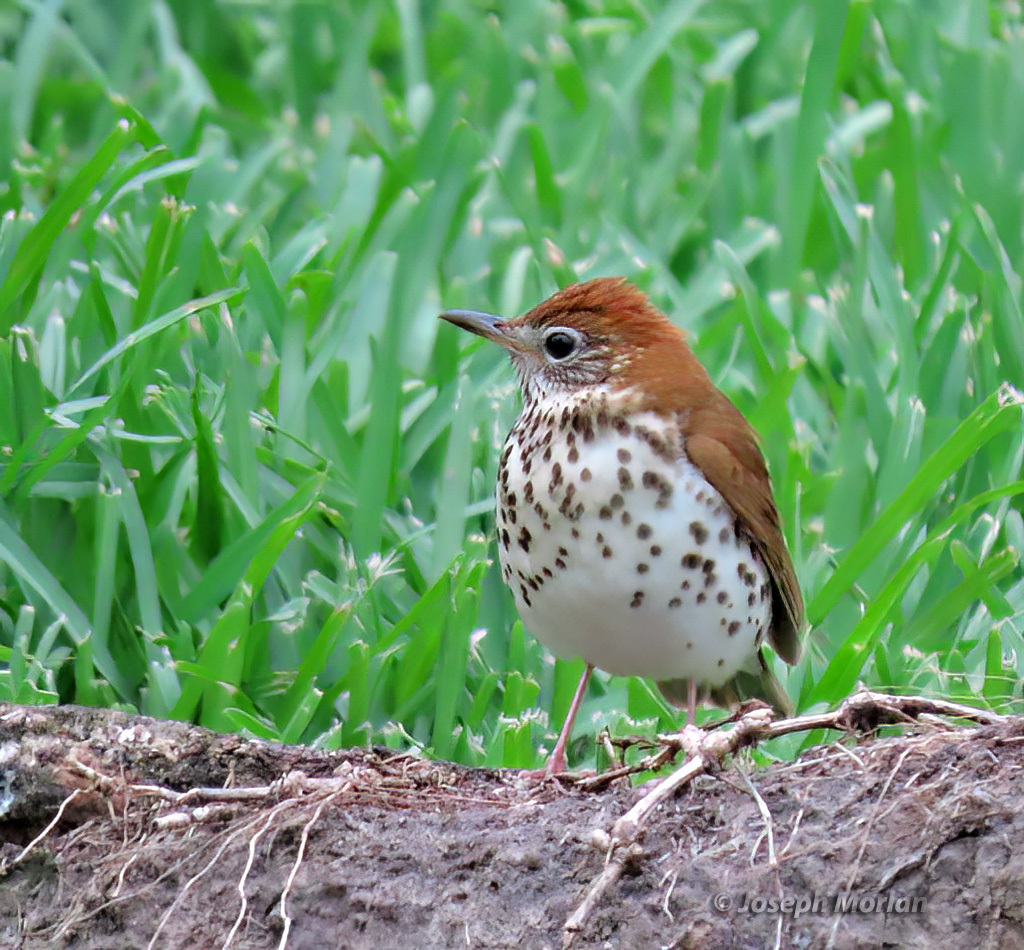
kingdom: Animalia
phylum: Chordata
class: Aves
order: Passeriformes
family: Turdidae
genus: Hylocichla
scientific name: Hylocichla mustelina
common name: Wood thrush
